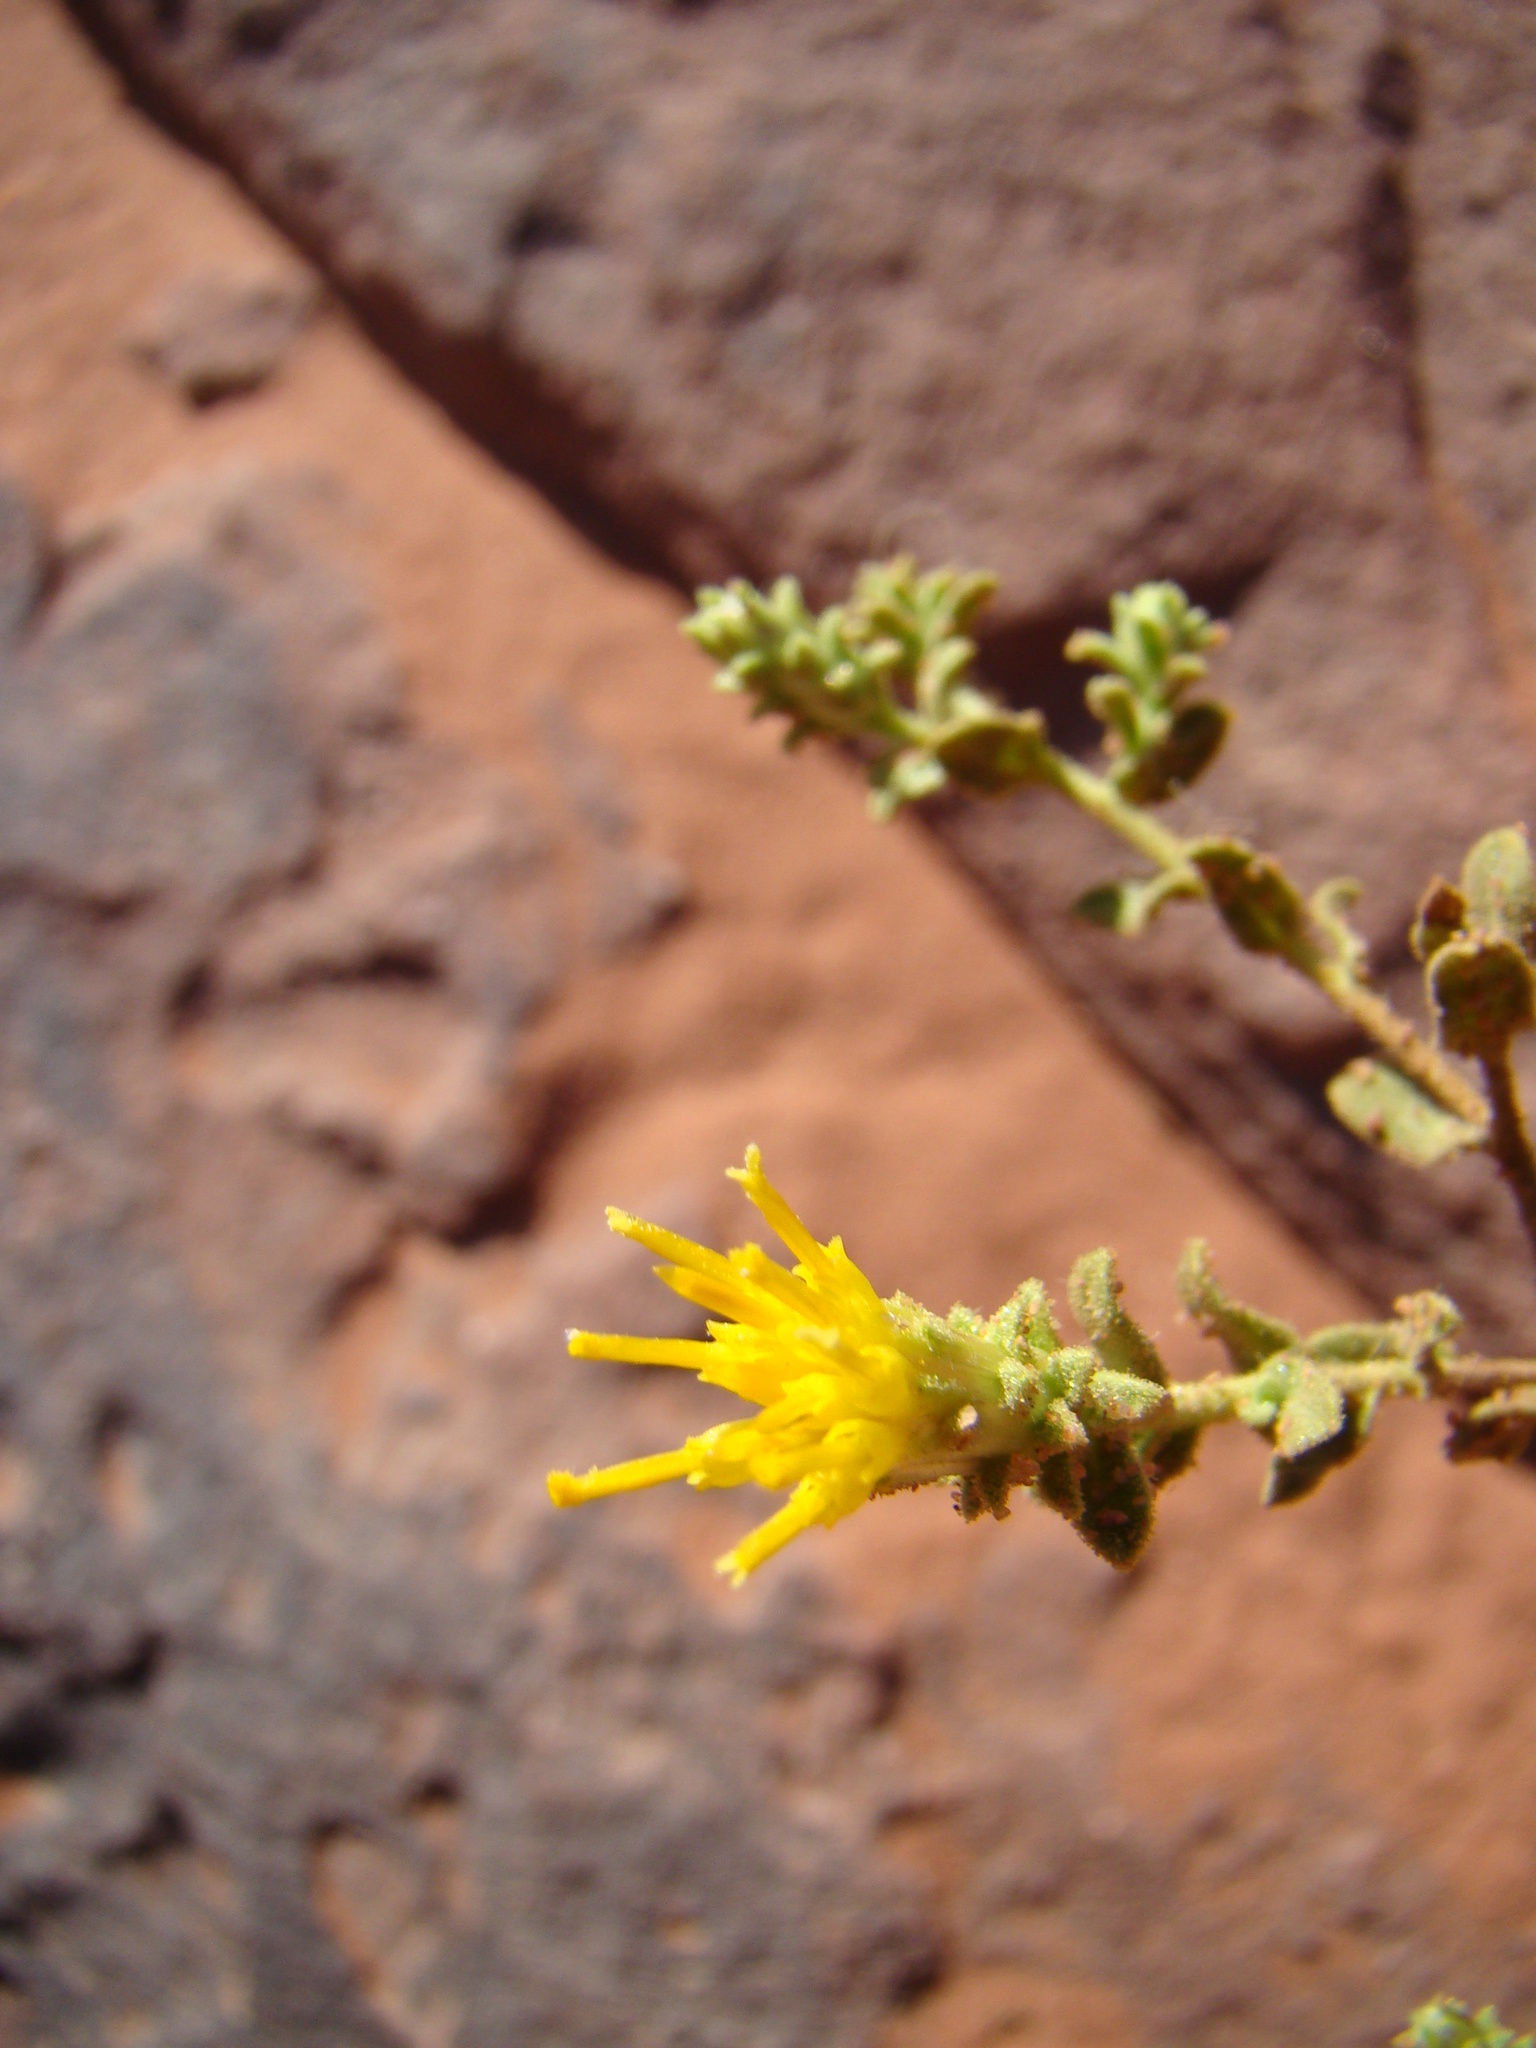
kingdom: Plantae
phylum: Tracheophyta
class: Magnoliopsida
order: Asterales
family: Asteraceae
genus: Chiliadenus
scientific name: Chiliadenus iphionoides
